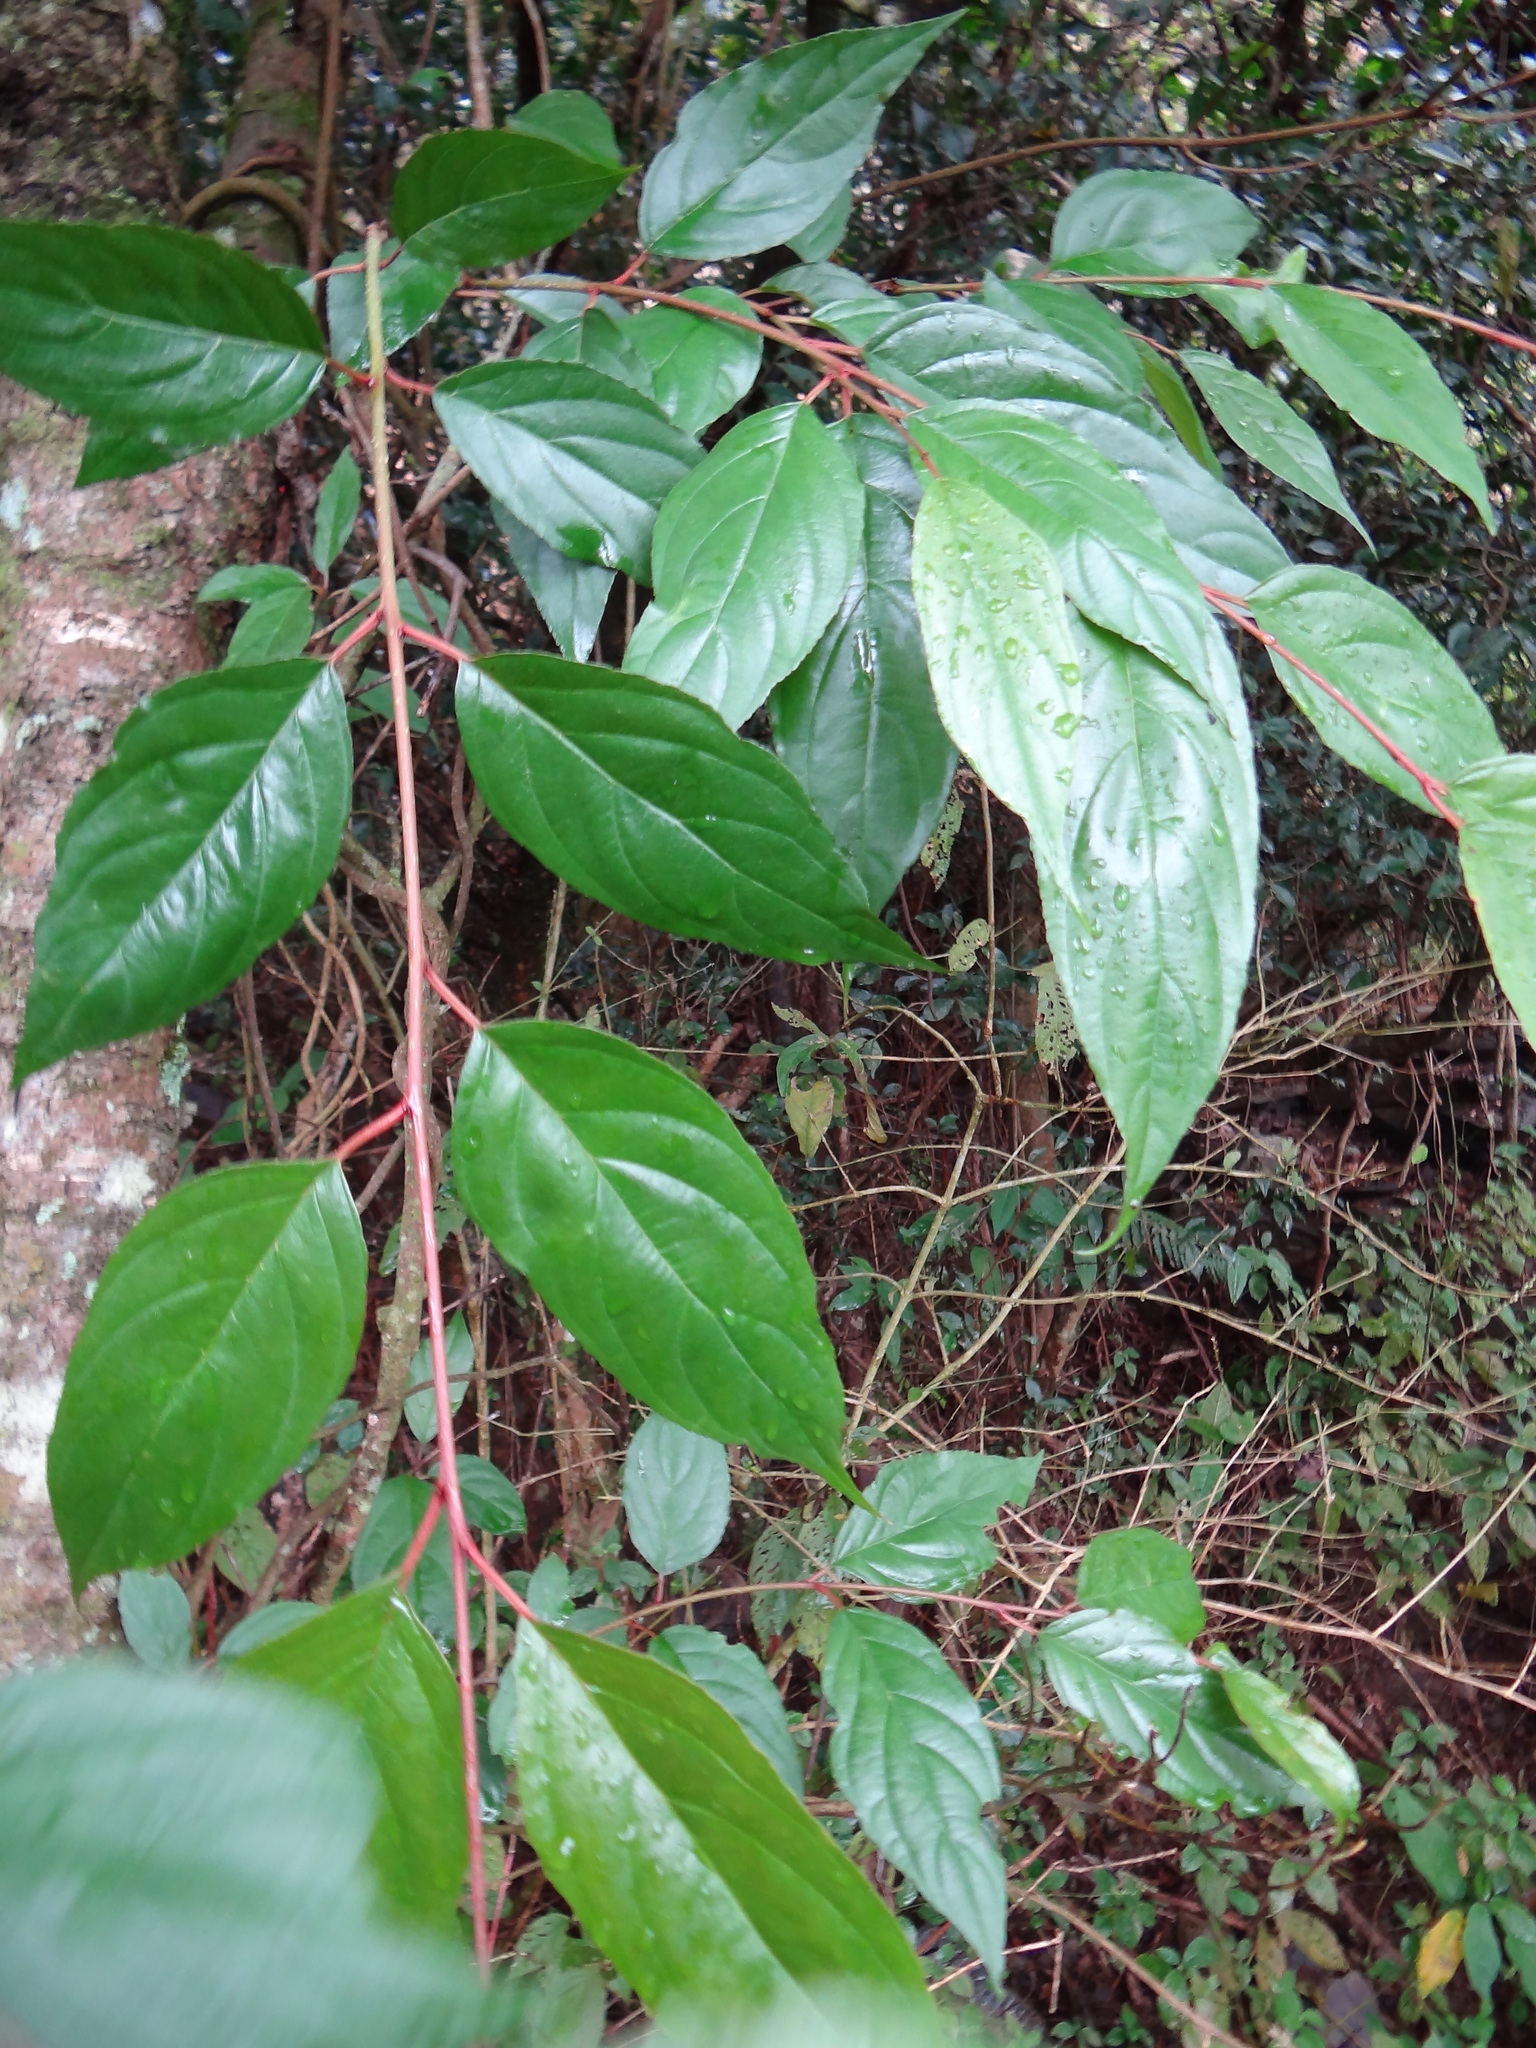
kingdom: Plantae
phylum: Tracheophyta
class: Magnoliopsida
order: Huerteales
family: Dipentodontaceae
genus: Perrottetia
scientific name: Perrottetia arisanensis
